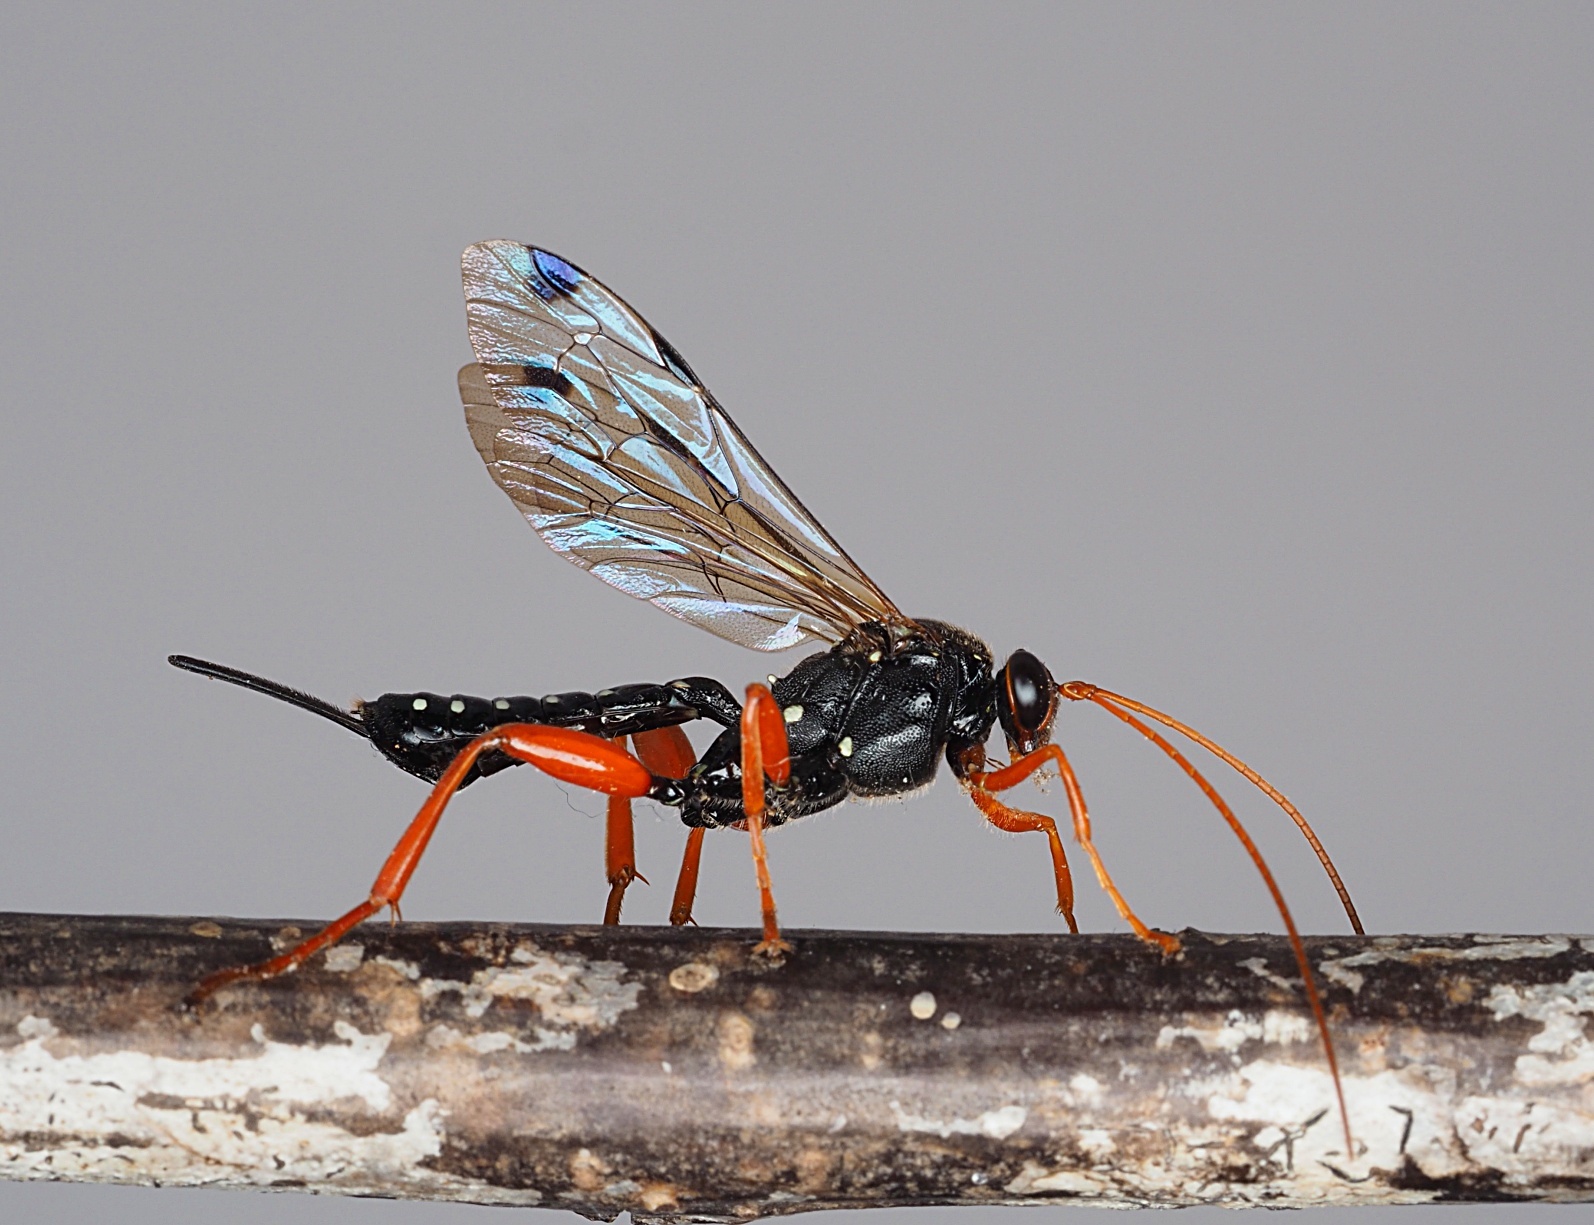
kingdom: Animalia
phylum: Arthropoda
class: Insecta
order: Hymenoptera
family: Ichneumonidae
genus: Echthromorpha
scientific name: Echthromorpha intricatoria
